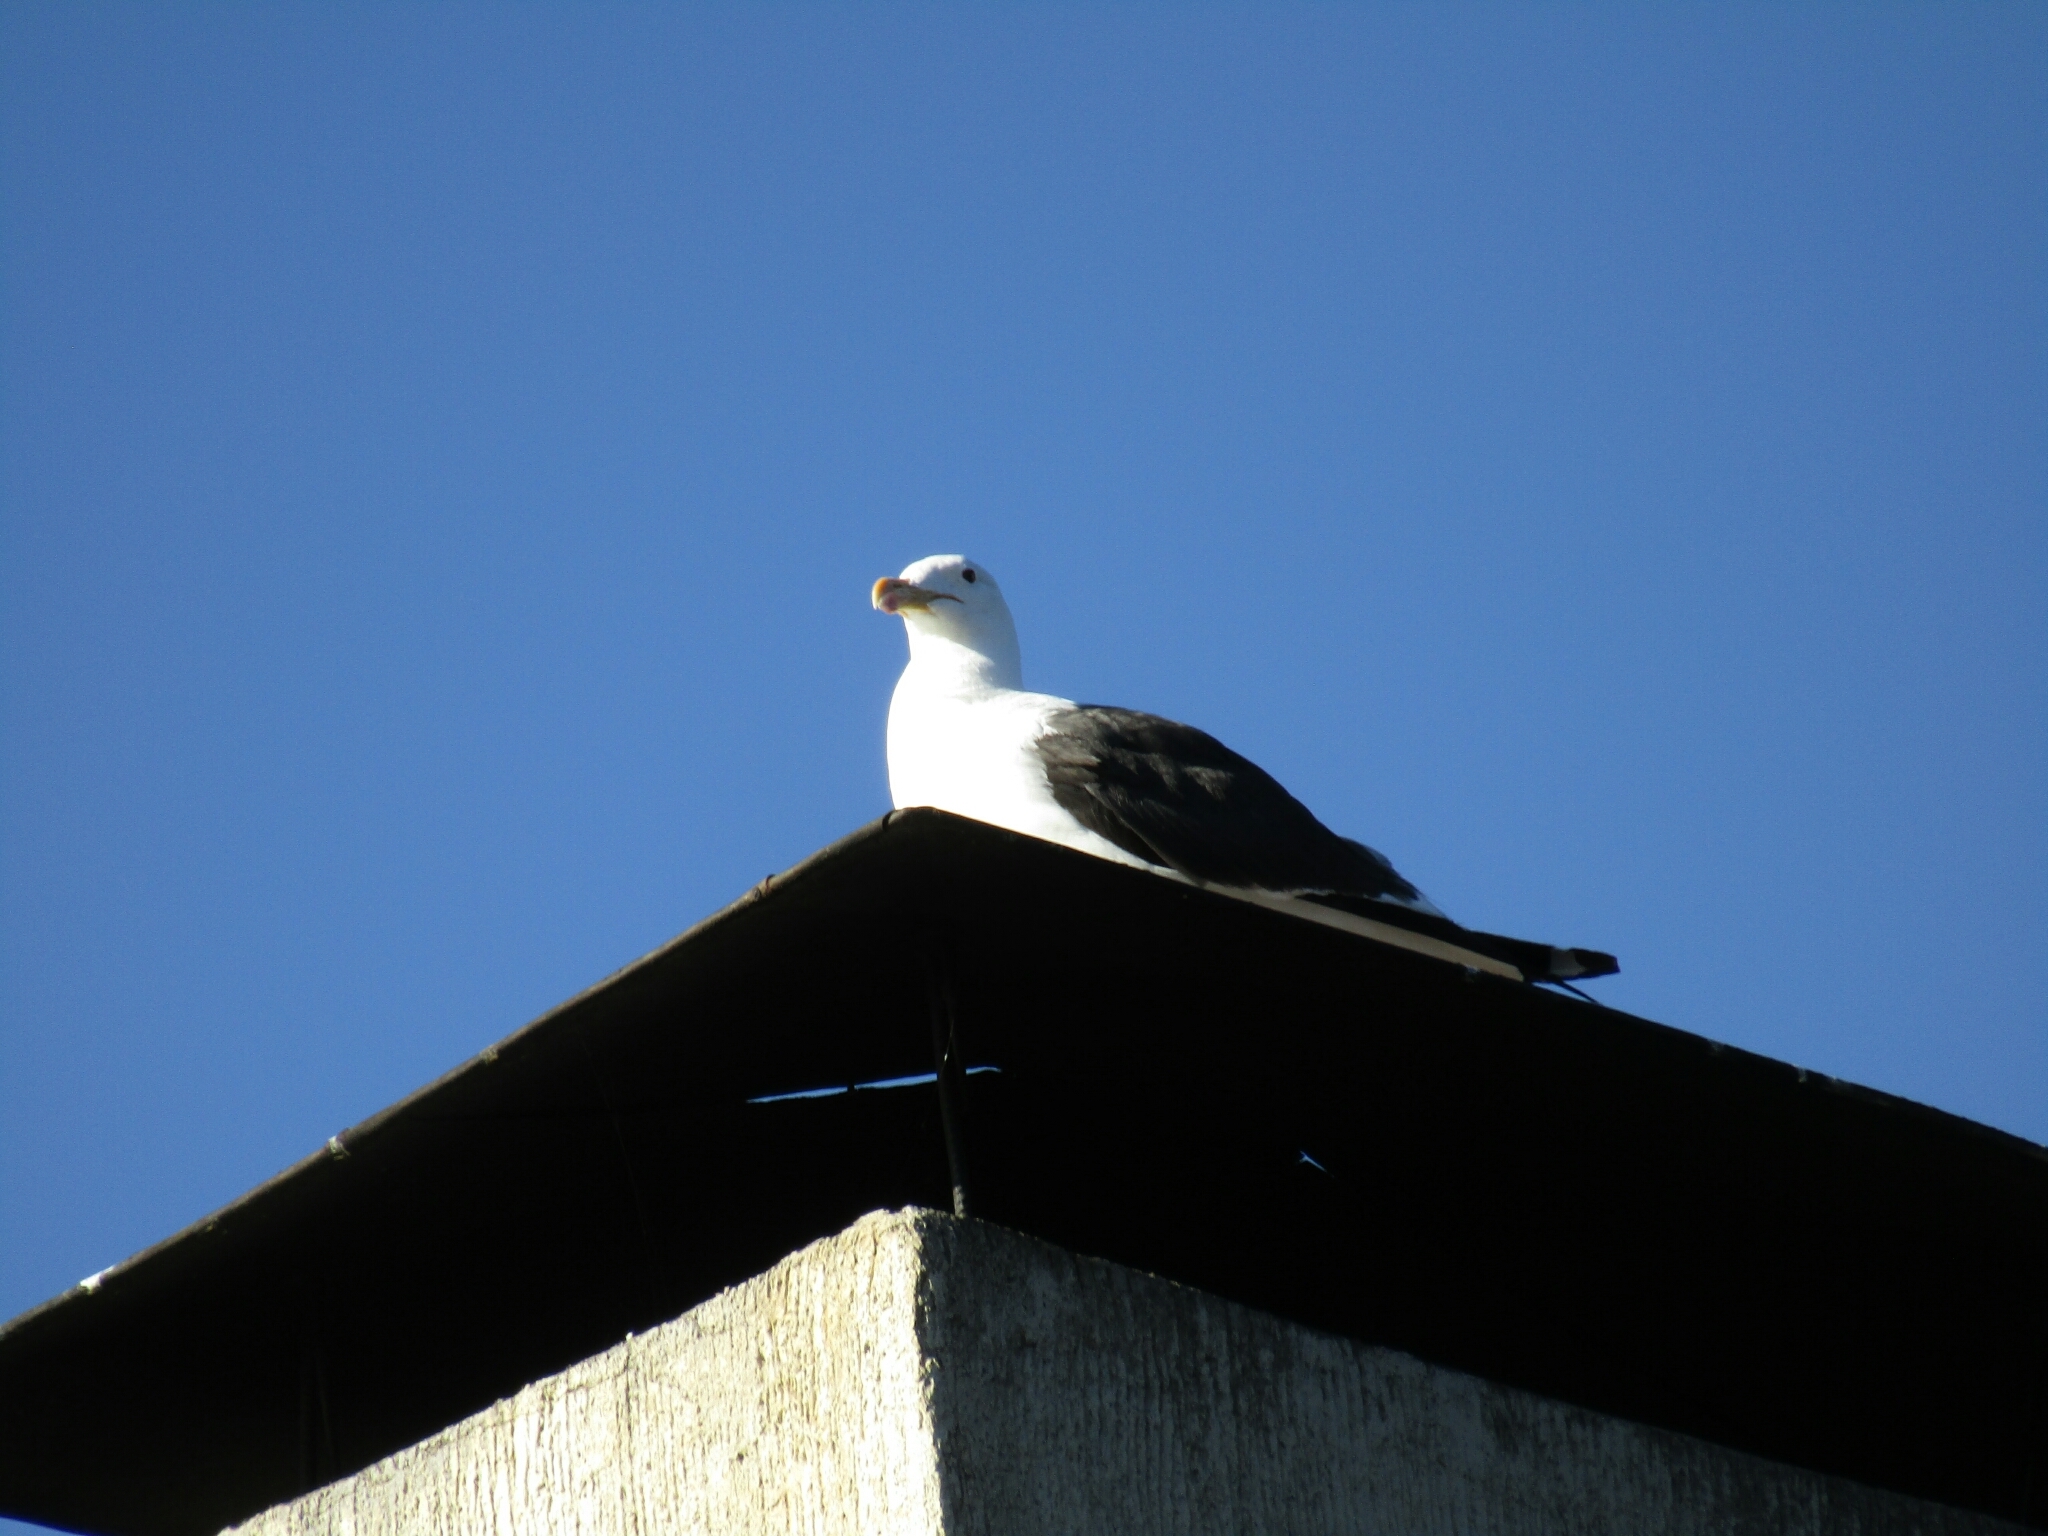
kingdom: Animalia
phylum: Chordata
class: Aves
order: Charadriiformes
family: Laridae
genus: Larus
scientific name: Larus dominicanus
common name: Kelp gull
